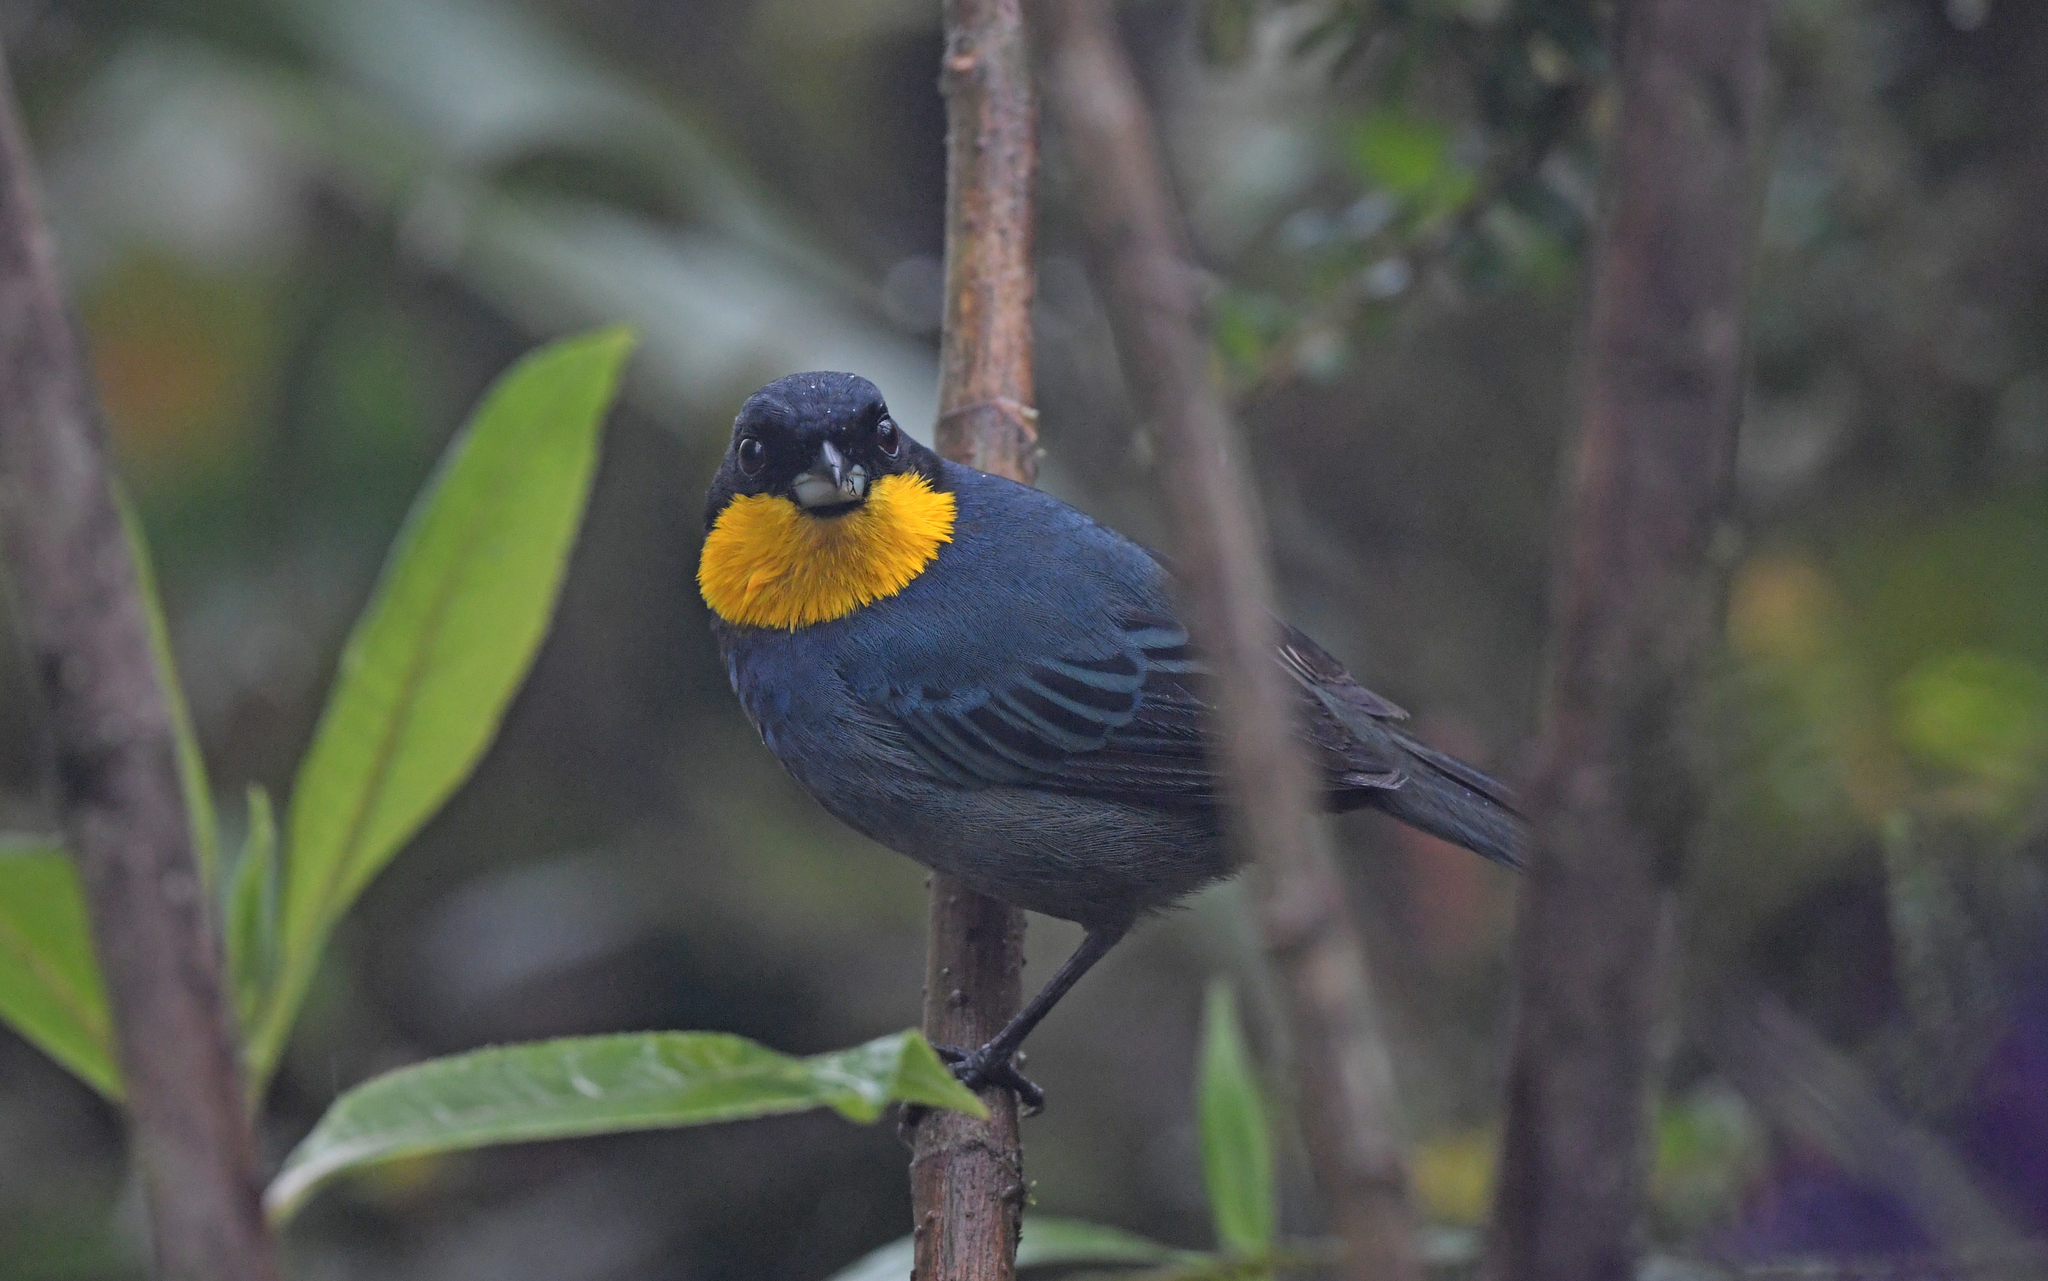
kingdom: Animalia
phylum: Chordata
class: Aves
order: Passeriformes
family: Thraupidae
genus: Iridosornis
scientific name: Iridosornis porphyrocephalus
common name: Purplish-mantled tanager
